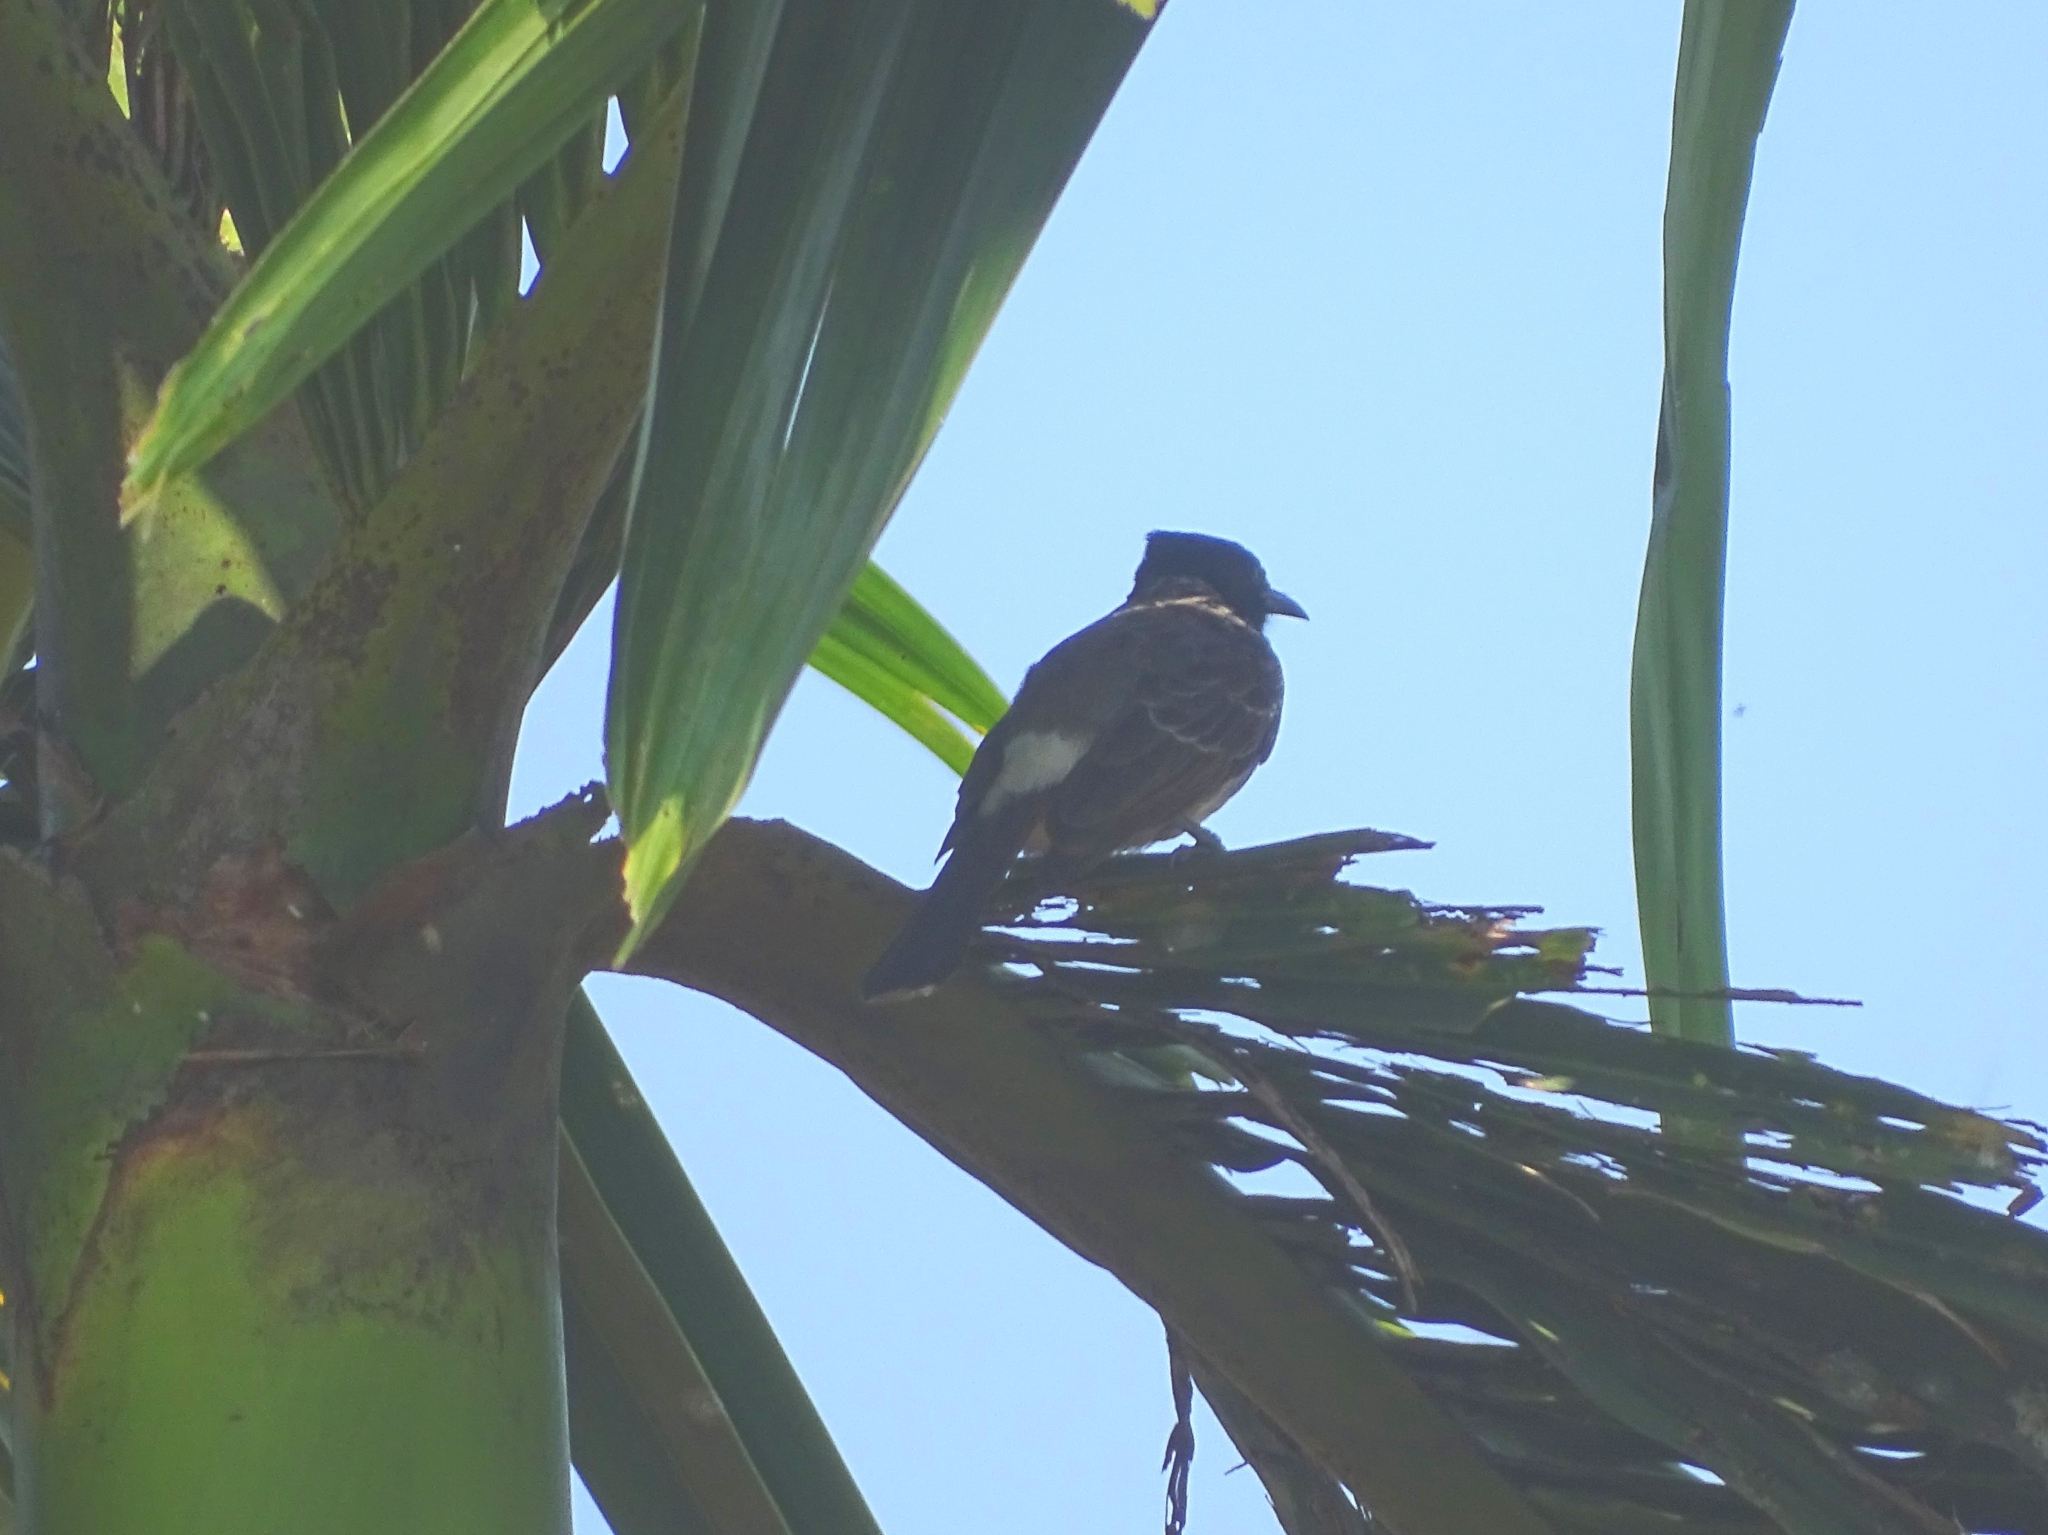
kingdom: Animalia
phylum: Chordata
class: Aves
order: Passeriformes
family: Pycnonotidae
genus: Pycnonotus
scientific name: Pycnonotus cafer
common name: Red-vented bulbul
